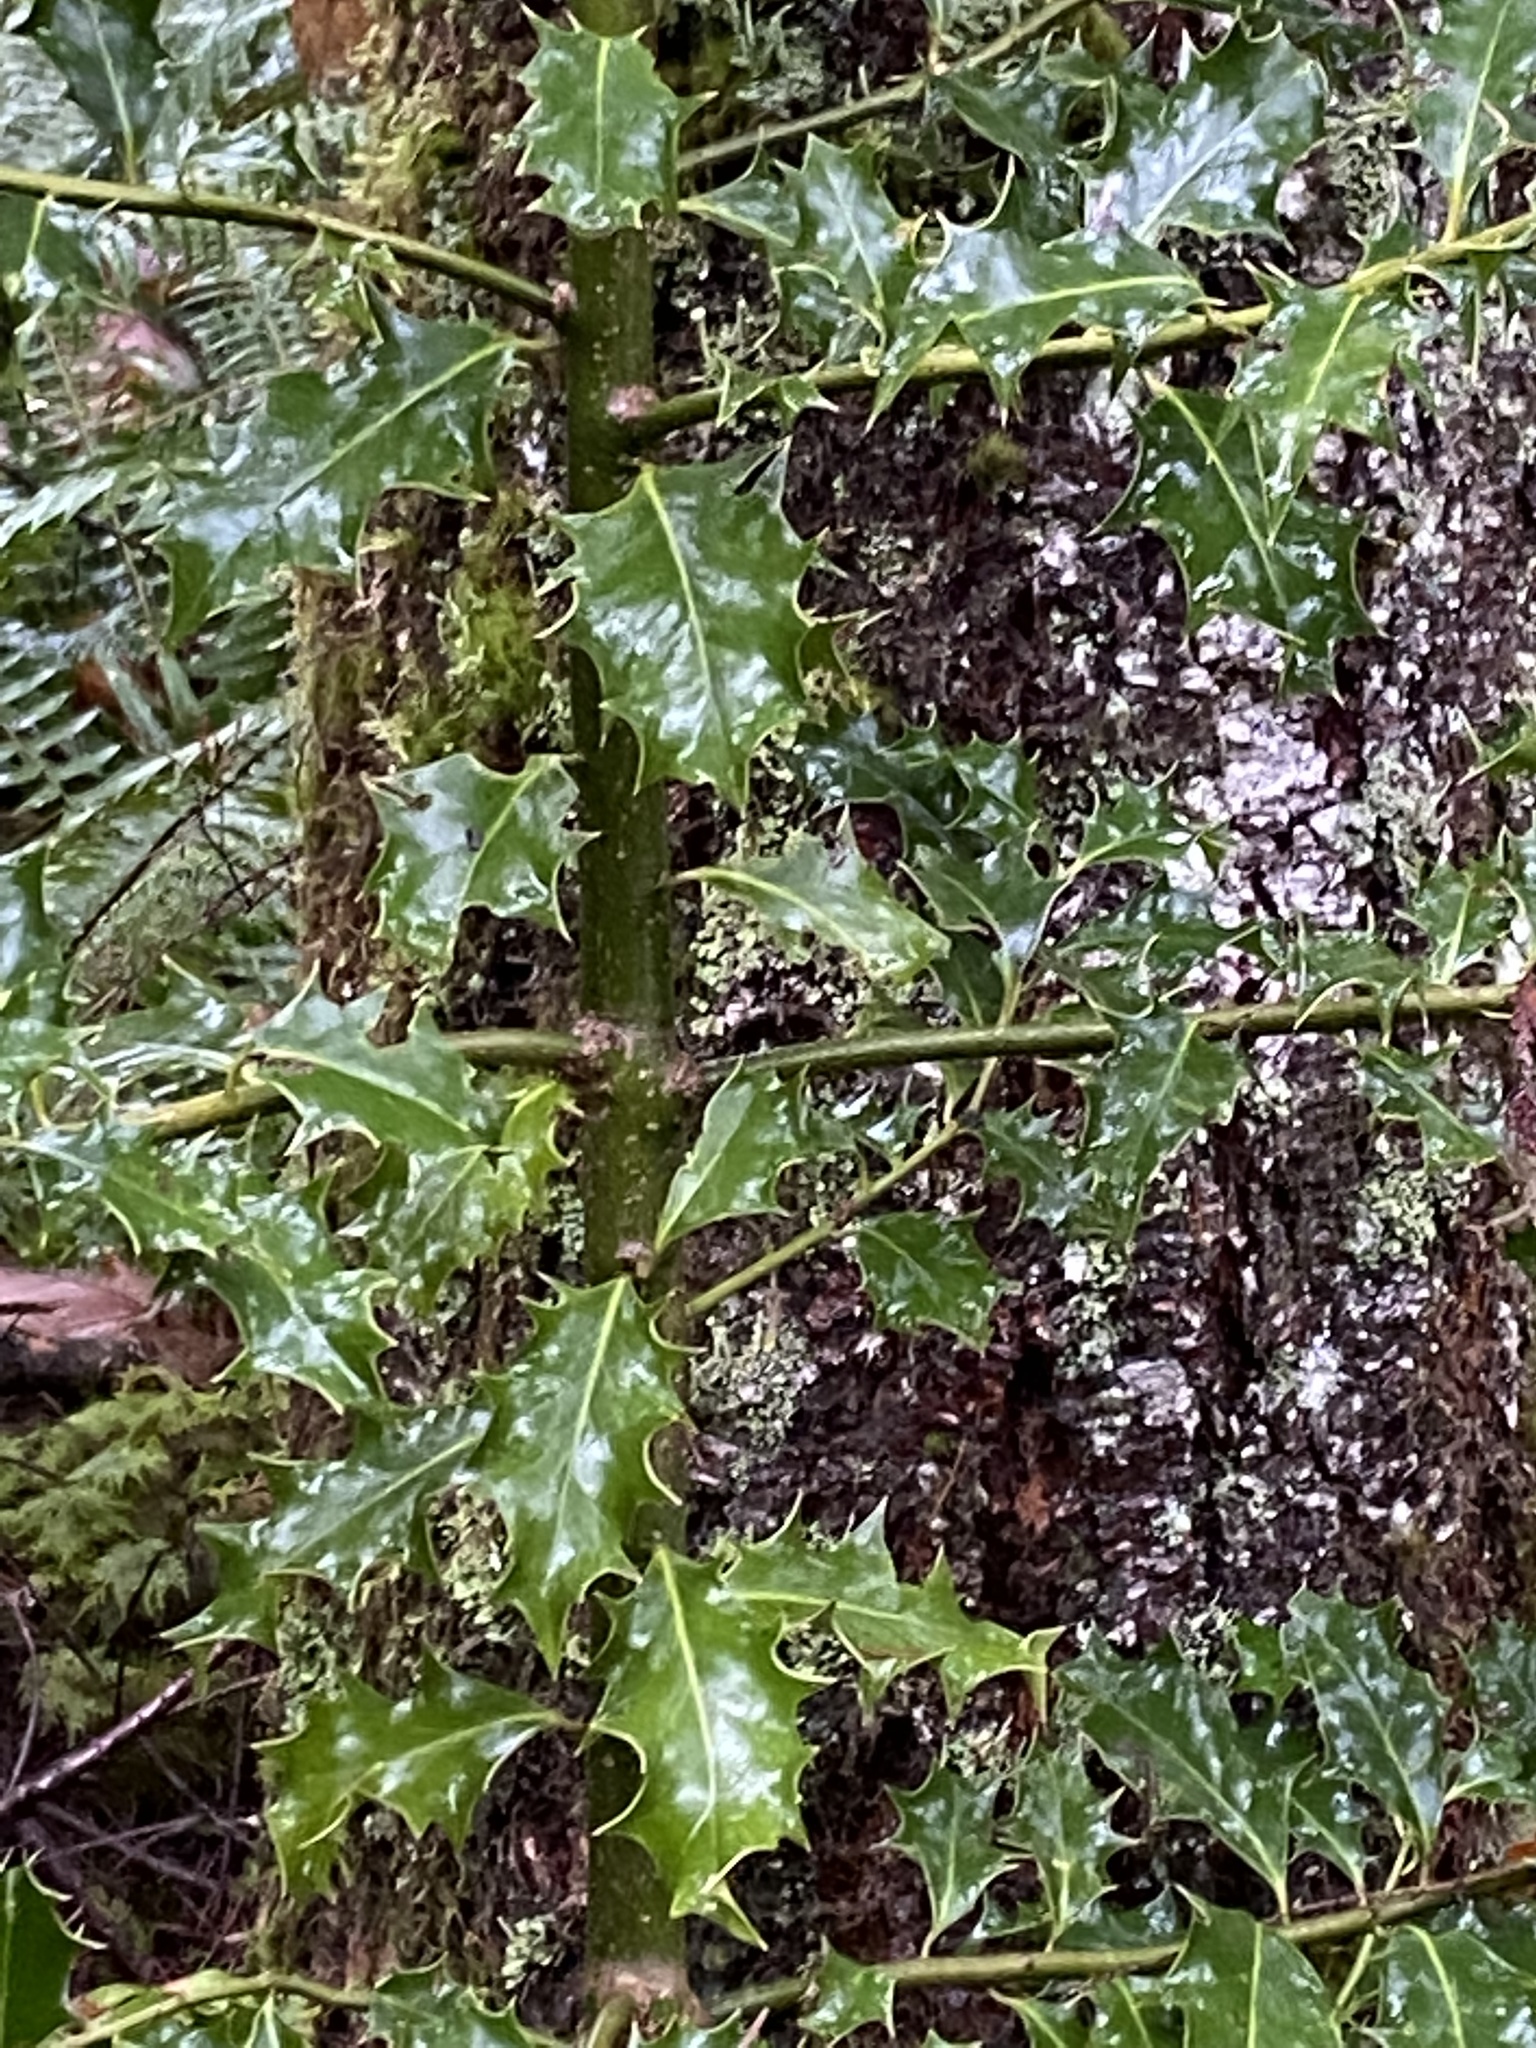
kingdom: Plantae
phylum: Tracheophyta
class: Magnoliopsida
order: Aquifoliales
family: Aquifoliaceae
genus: Ilex
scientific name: Ilex aquifolium
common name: English holly
